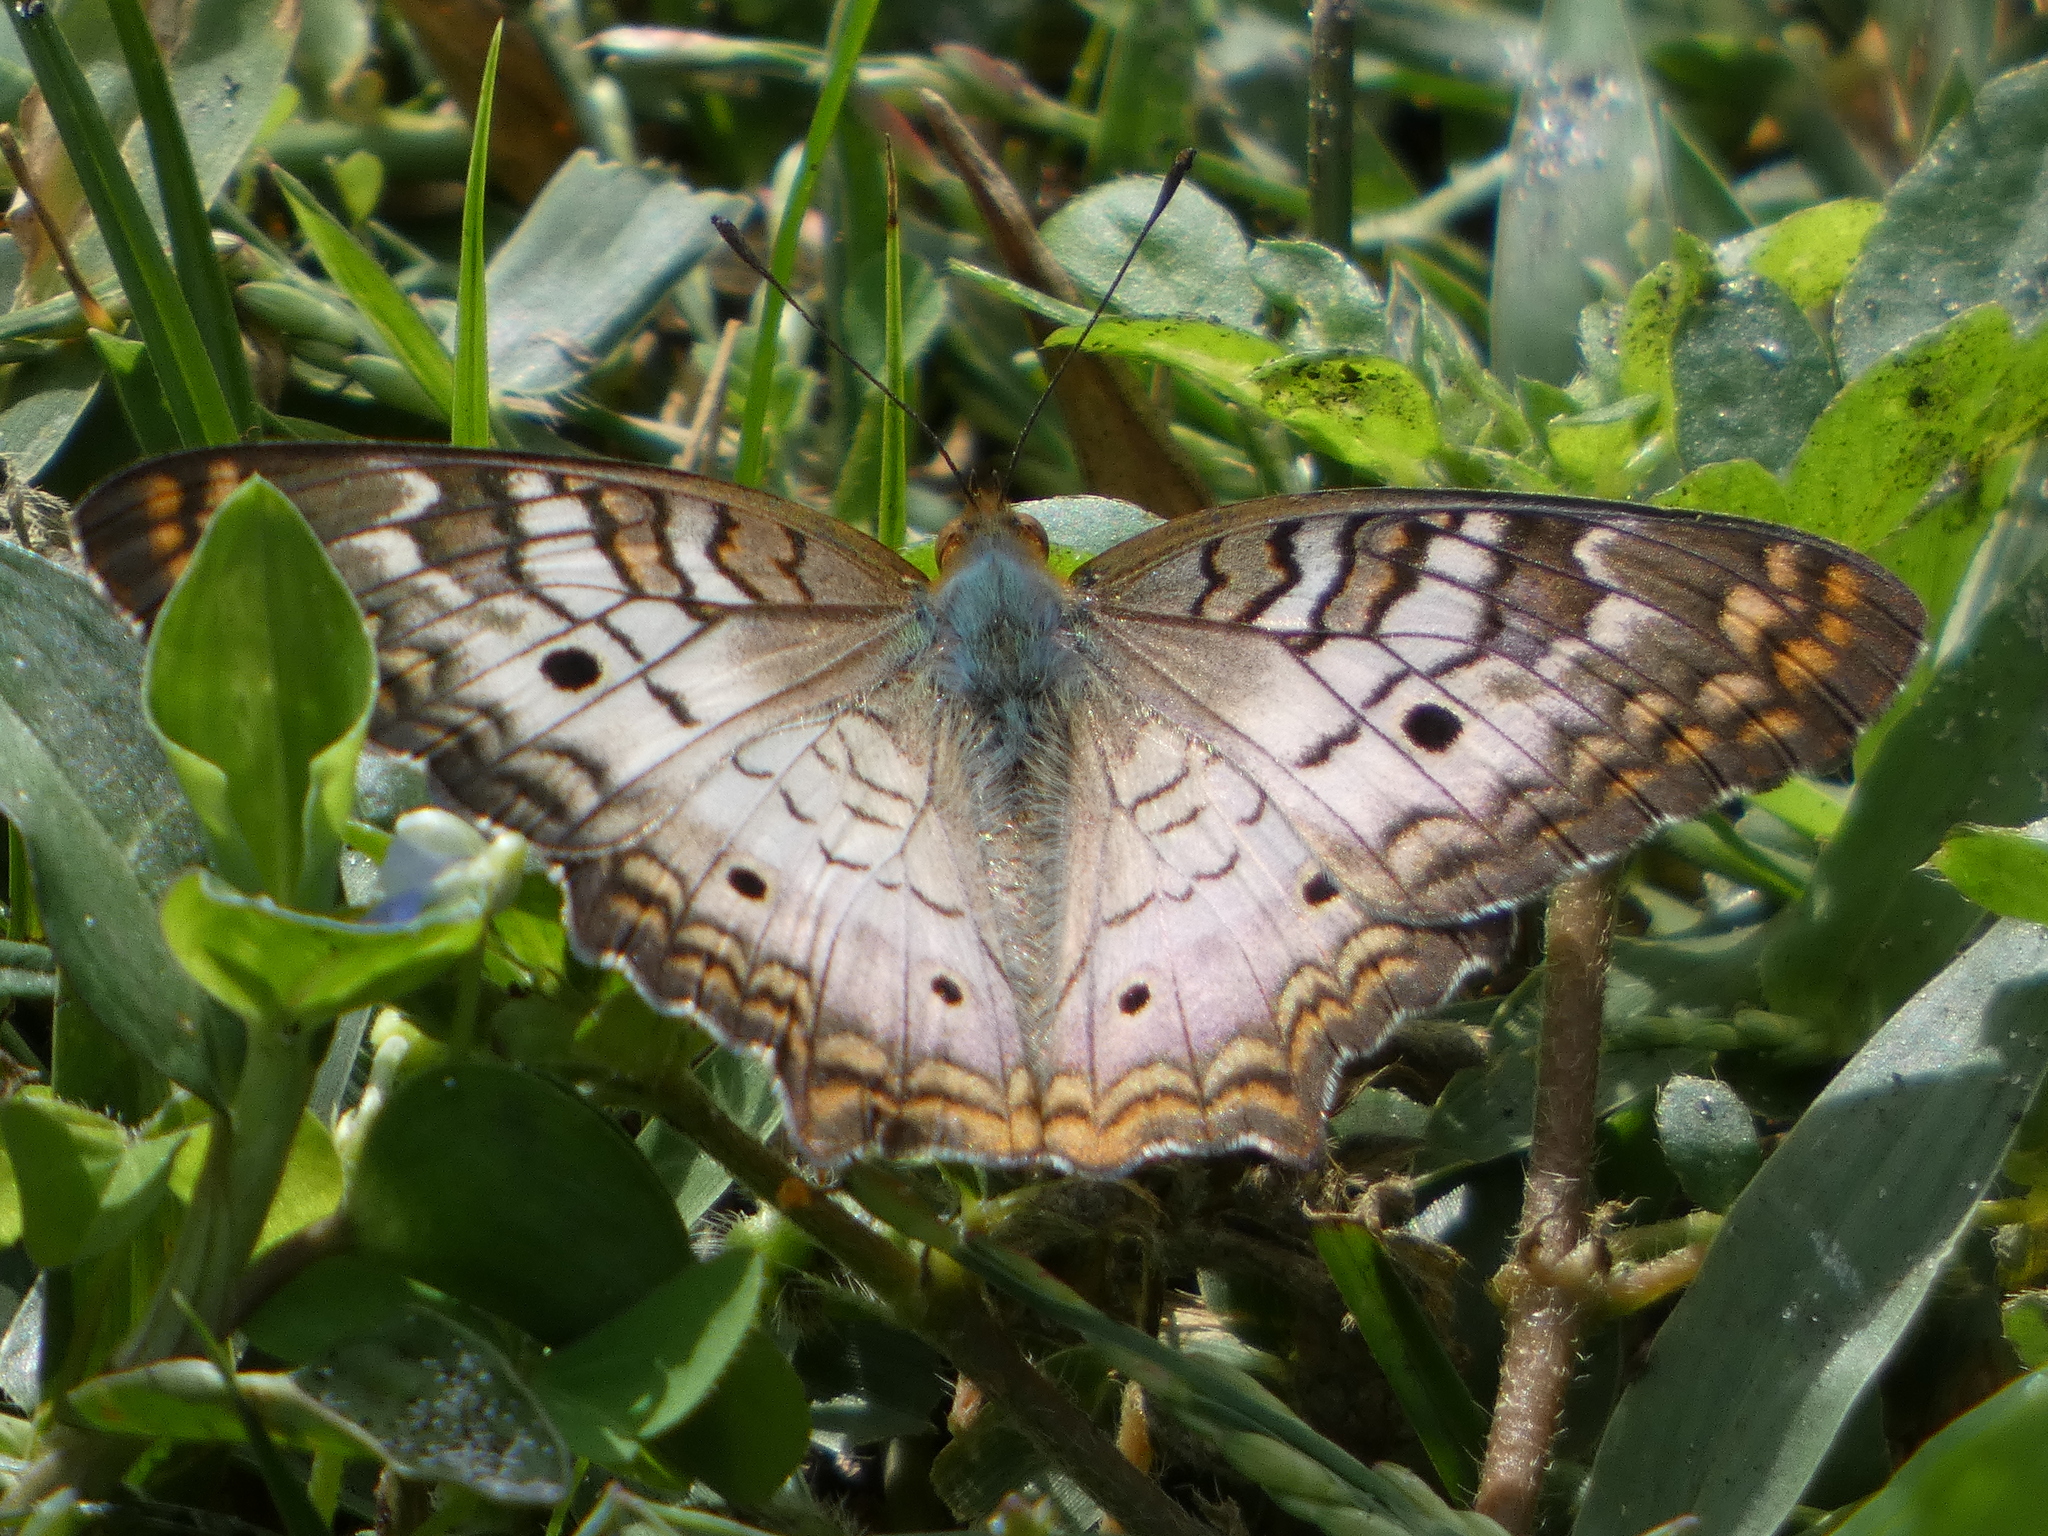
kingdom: Animalia
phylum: Arthropoda
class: Insecta
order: Lepidoptera
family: Nymphalidae
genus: Anartia
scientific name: Anartia jatrophae
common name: White peacock
